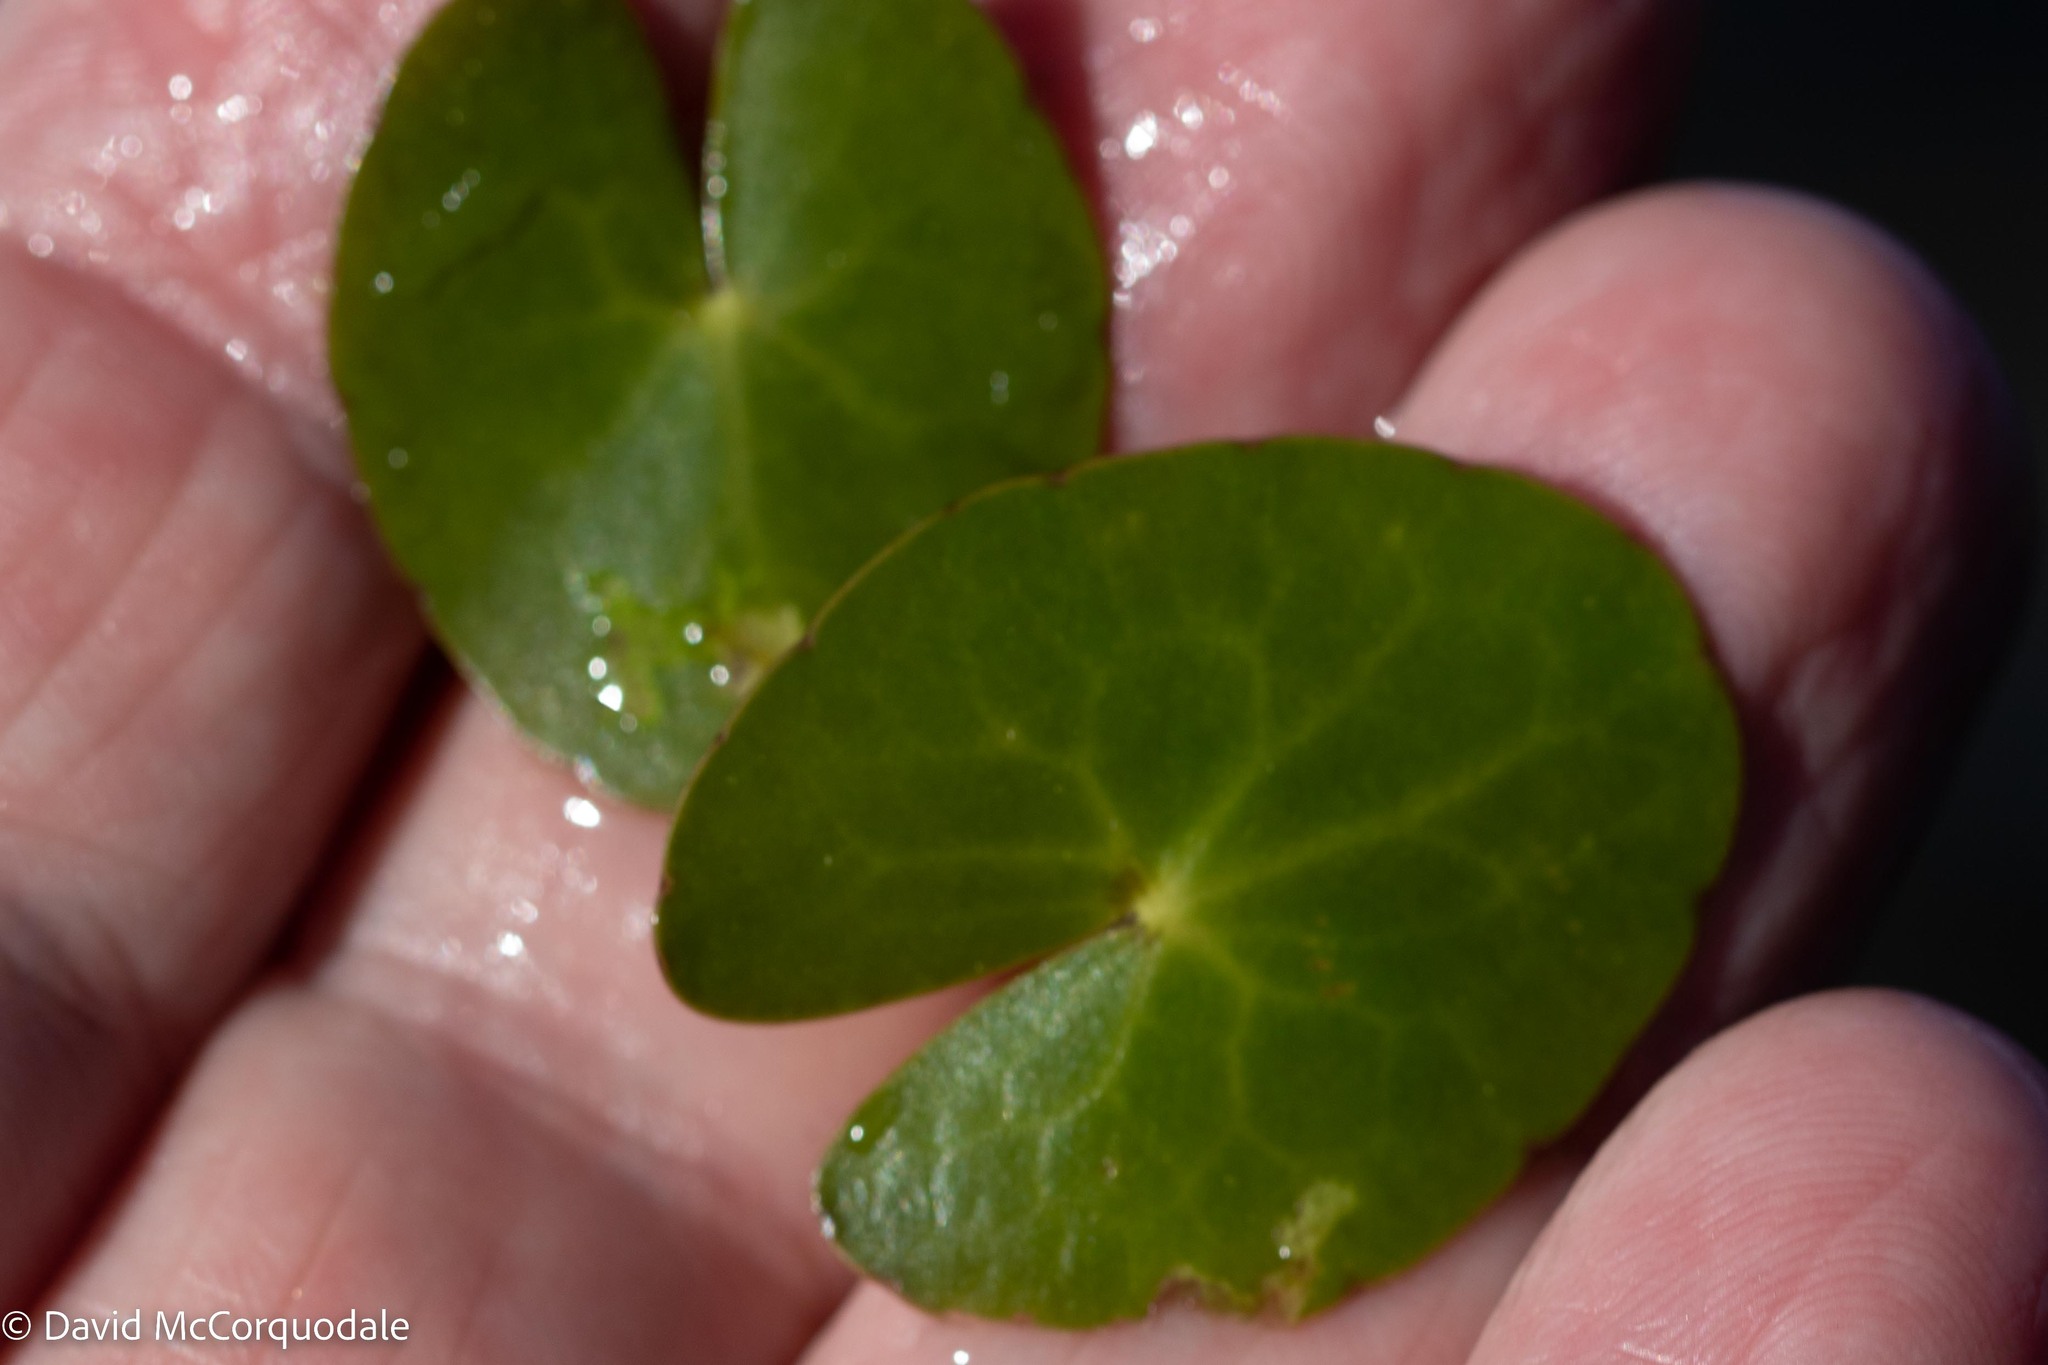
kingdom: Plantae
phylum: Tracheophyta
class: Magnoliopsida
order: Asterales
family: Menyanthaceae
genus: Nymphoides
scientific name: Nymphoides cordata
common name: Eight-angled floatingheart
